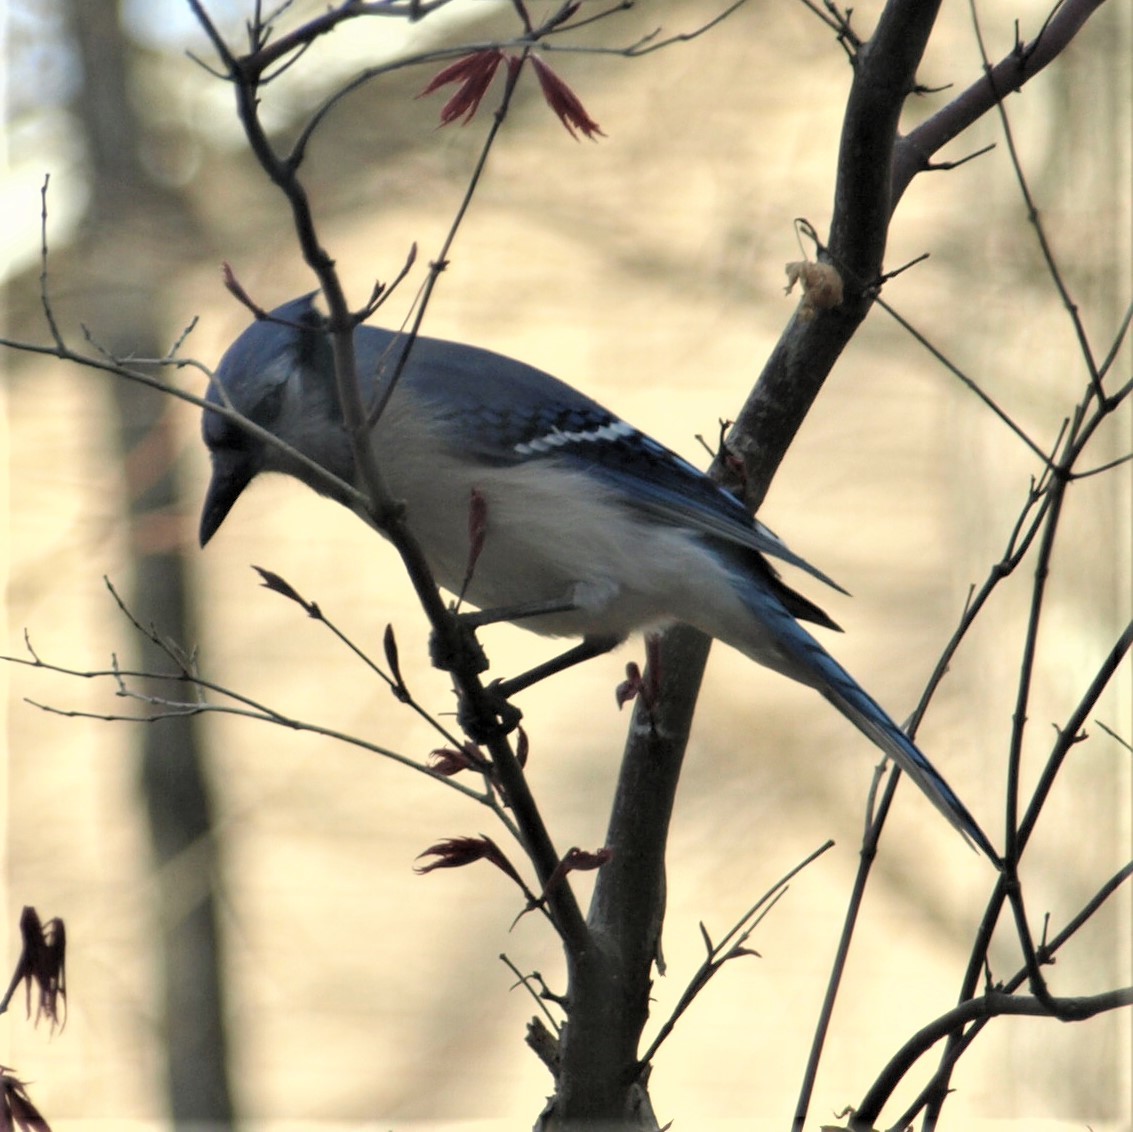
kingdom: Animalia
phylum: Chordata
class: Aves
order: Passeriformes
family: Corvidae
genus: Cyanocitta
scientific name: Cyanocitta cristata
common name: Blue jay
